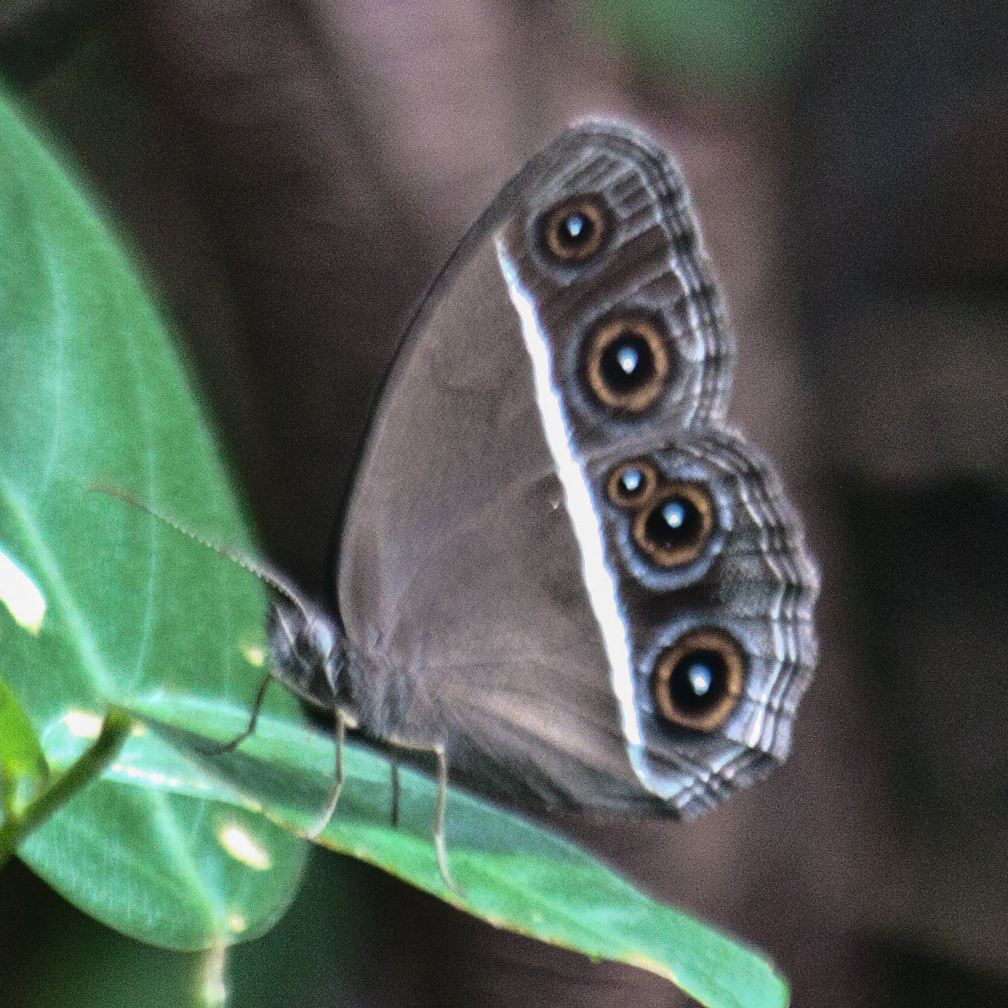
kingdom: Animalia
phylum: Arthropoda
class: Insecta
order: Lepidoptera
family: Nymphalidae
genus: Orsotriaena
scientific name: Orsotriaena medus
